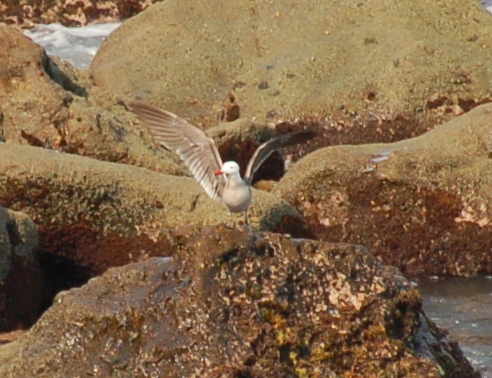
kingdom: Animalia
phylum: Chordata
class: Aves
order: Charadriiformes
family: Laridae
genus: Larus
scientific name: Larus heermanni
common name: Heermann's gull
